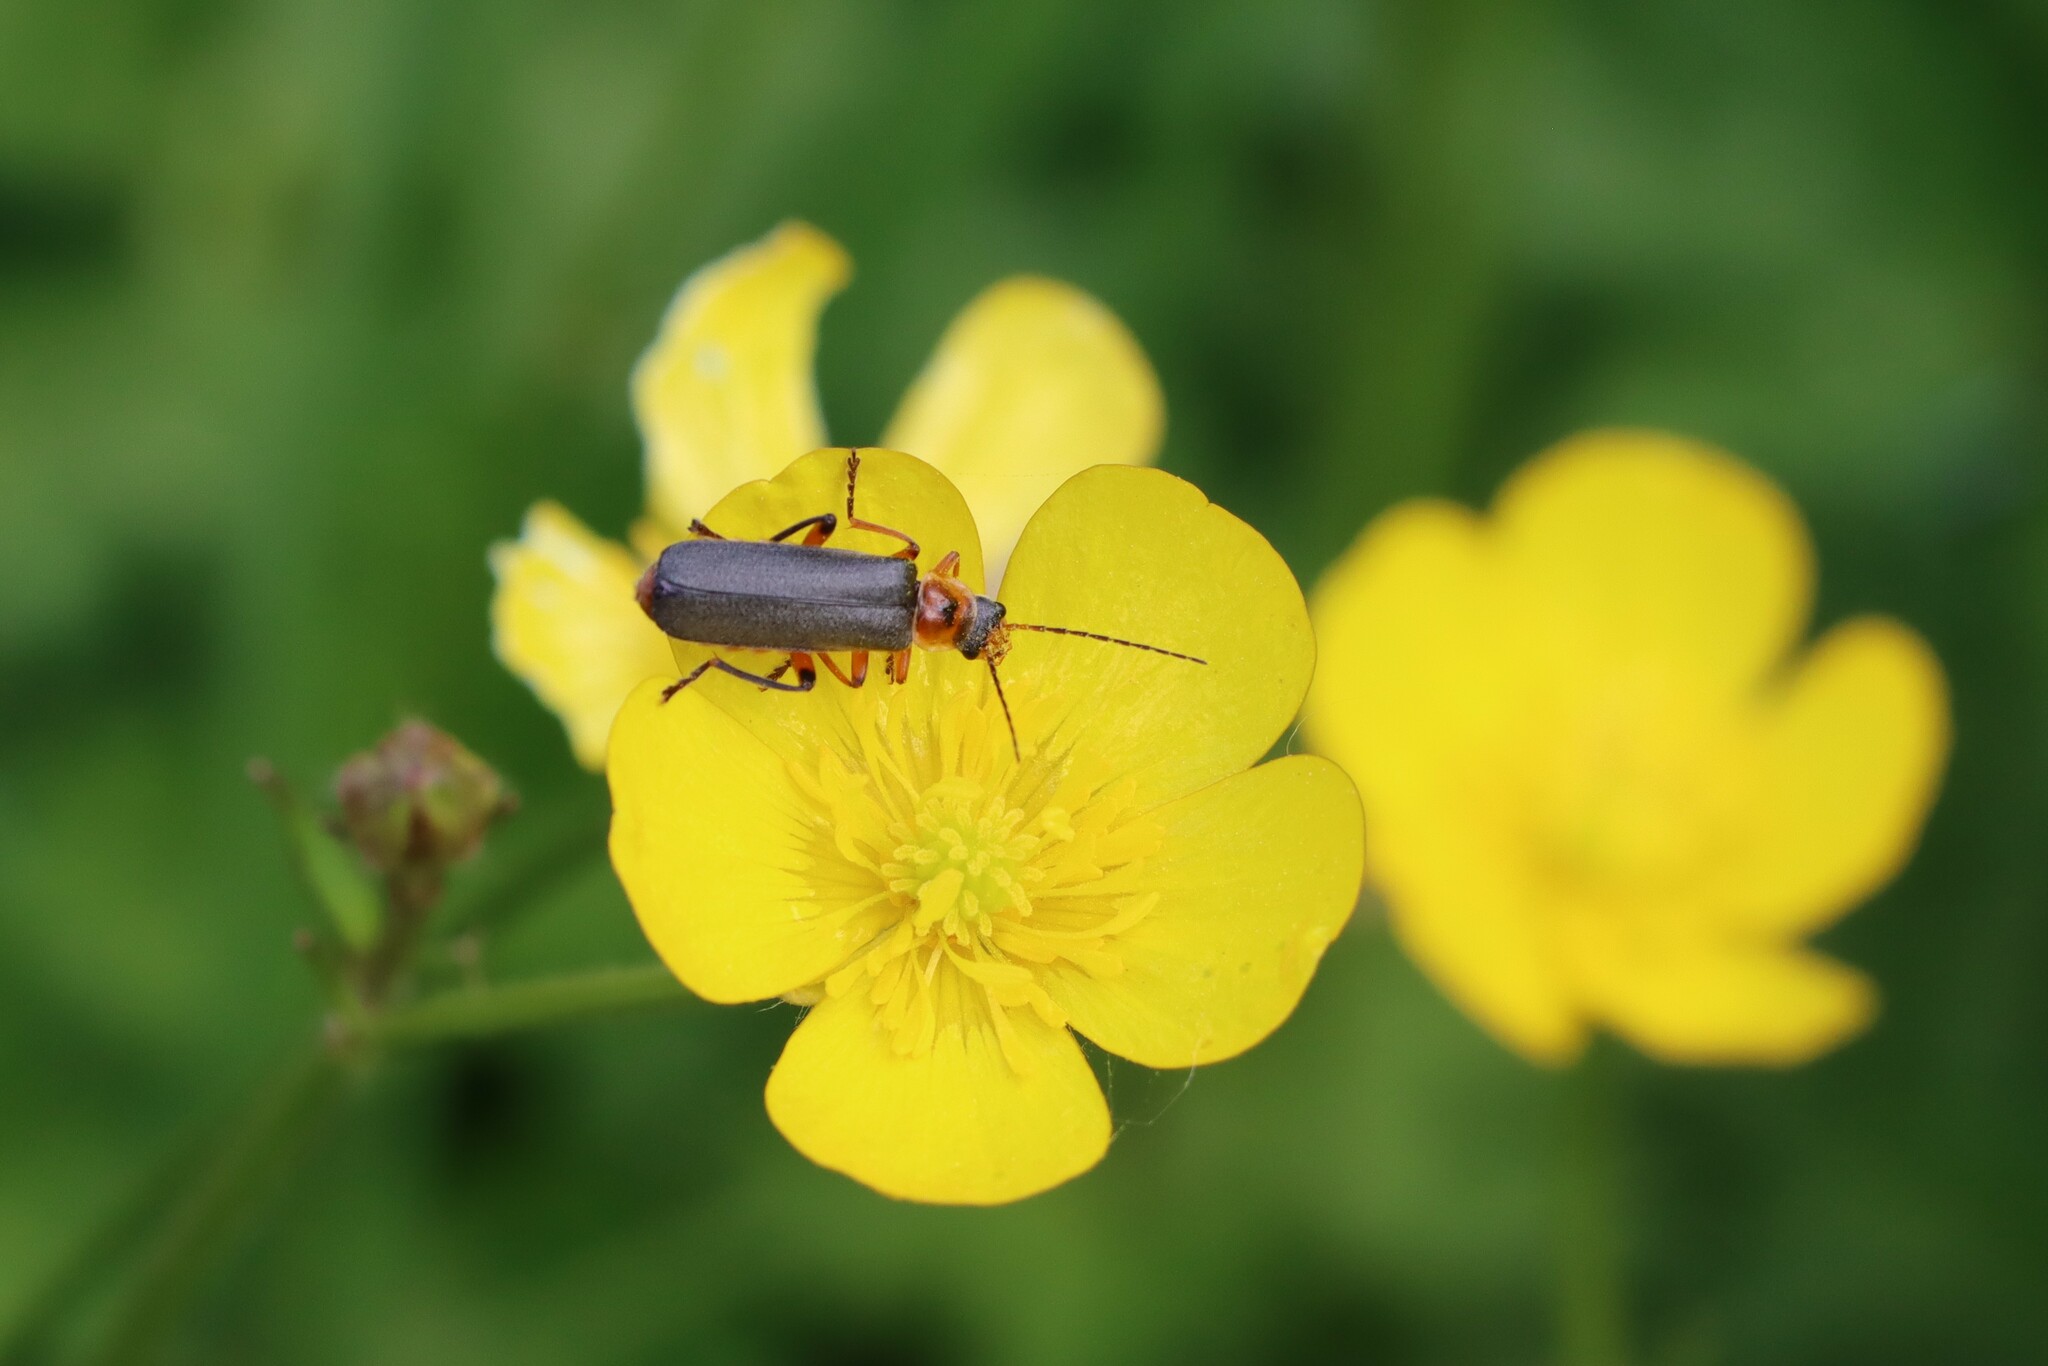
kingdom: Animalia
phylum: Arthropoda
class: Insecta
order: Coleoptera
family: Cantharidae
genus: Cantharis
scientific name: Cantharis nigricans
